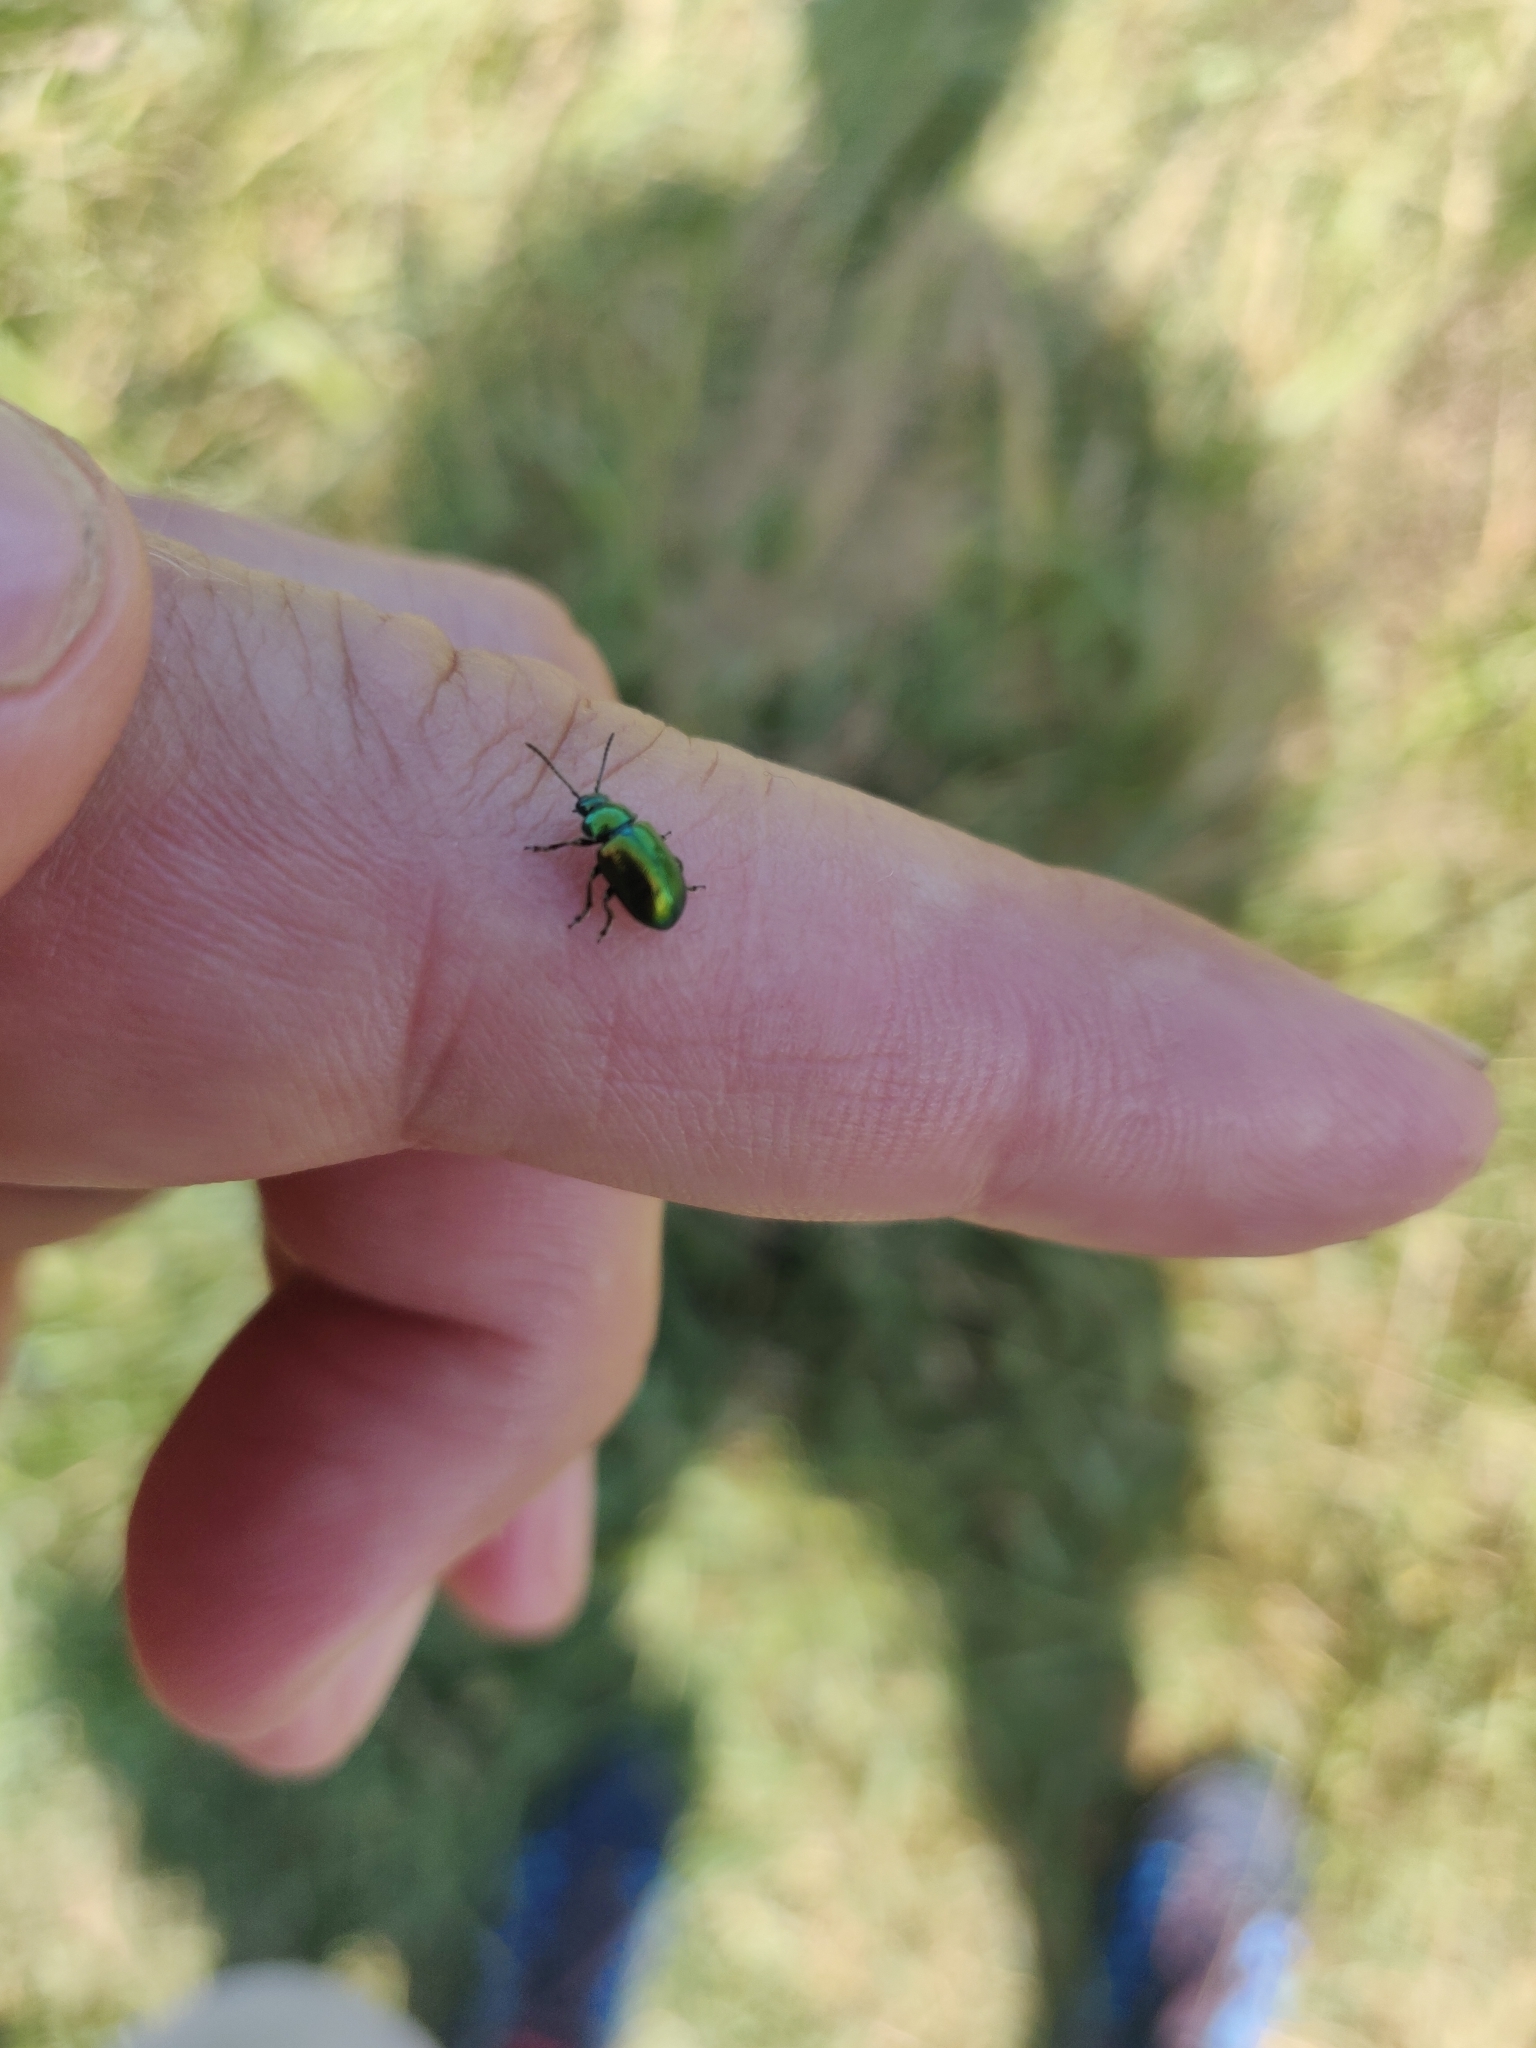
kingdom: Animalia
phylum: Arthropoda
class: Insecta
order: Coleoptera
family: Chrysomelidae
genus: Gastrophysa
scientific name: Gastrophysa viridula
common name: Green dock beetle
